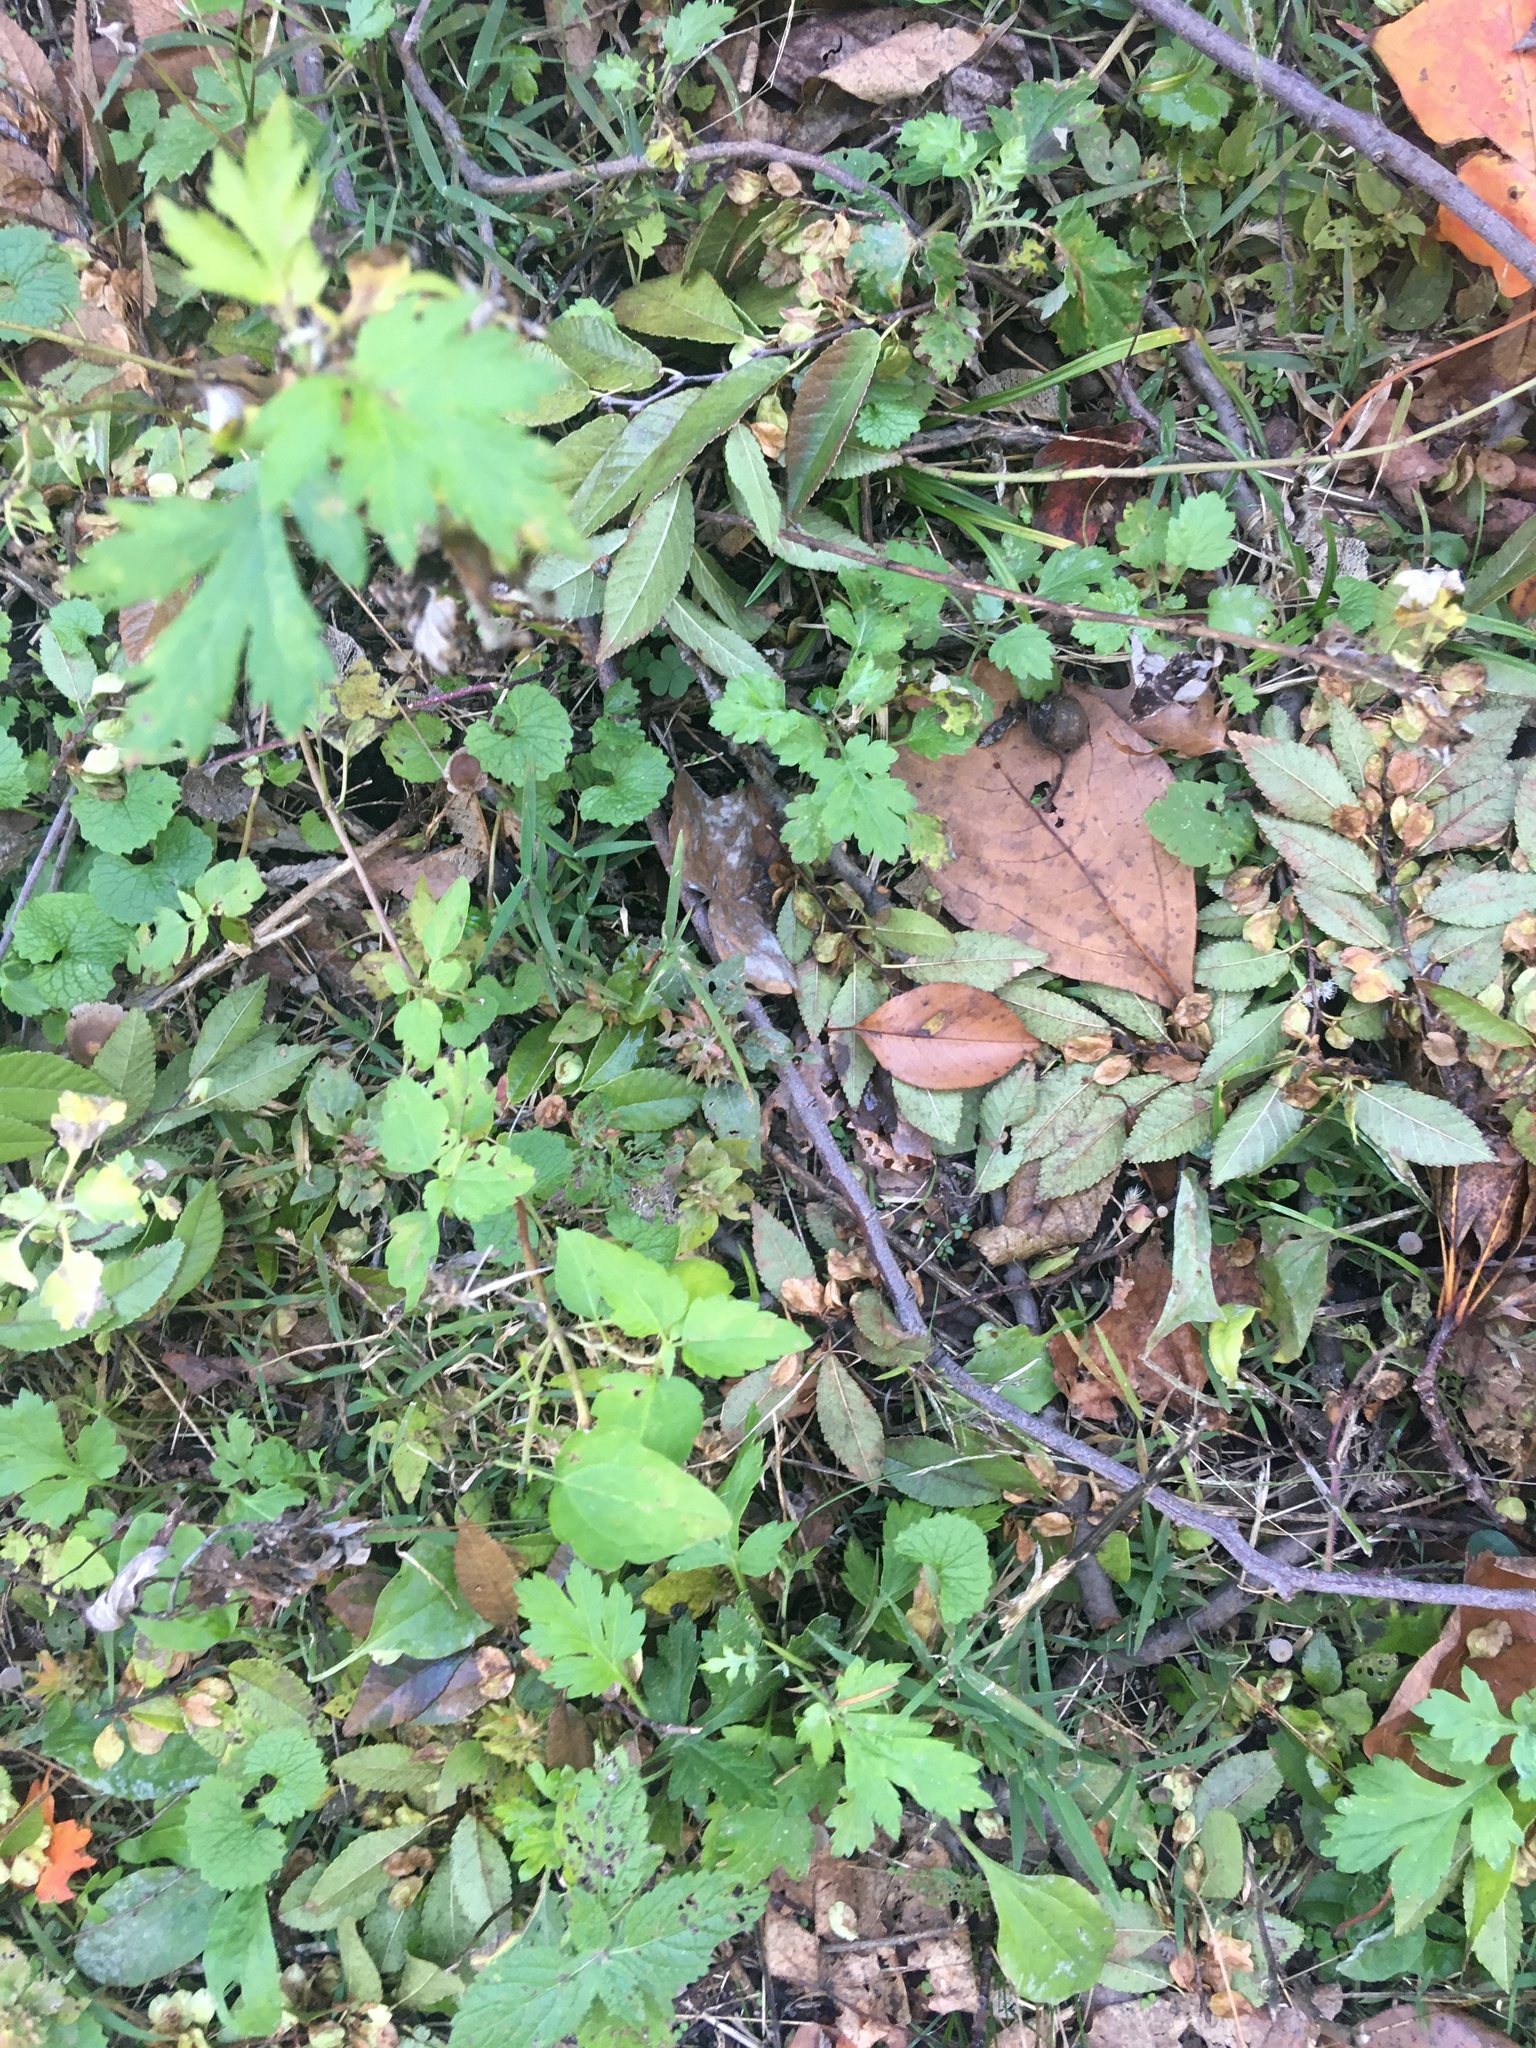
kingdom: Plantae
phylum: Tracheophyta
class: Magnoliopsida
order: Asterales
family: Asteraceae
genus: Artemisia
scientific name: Artemisia vulgaris
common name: Mugwort
